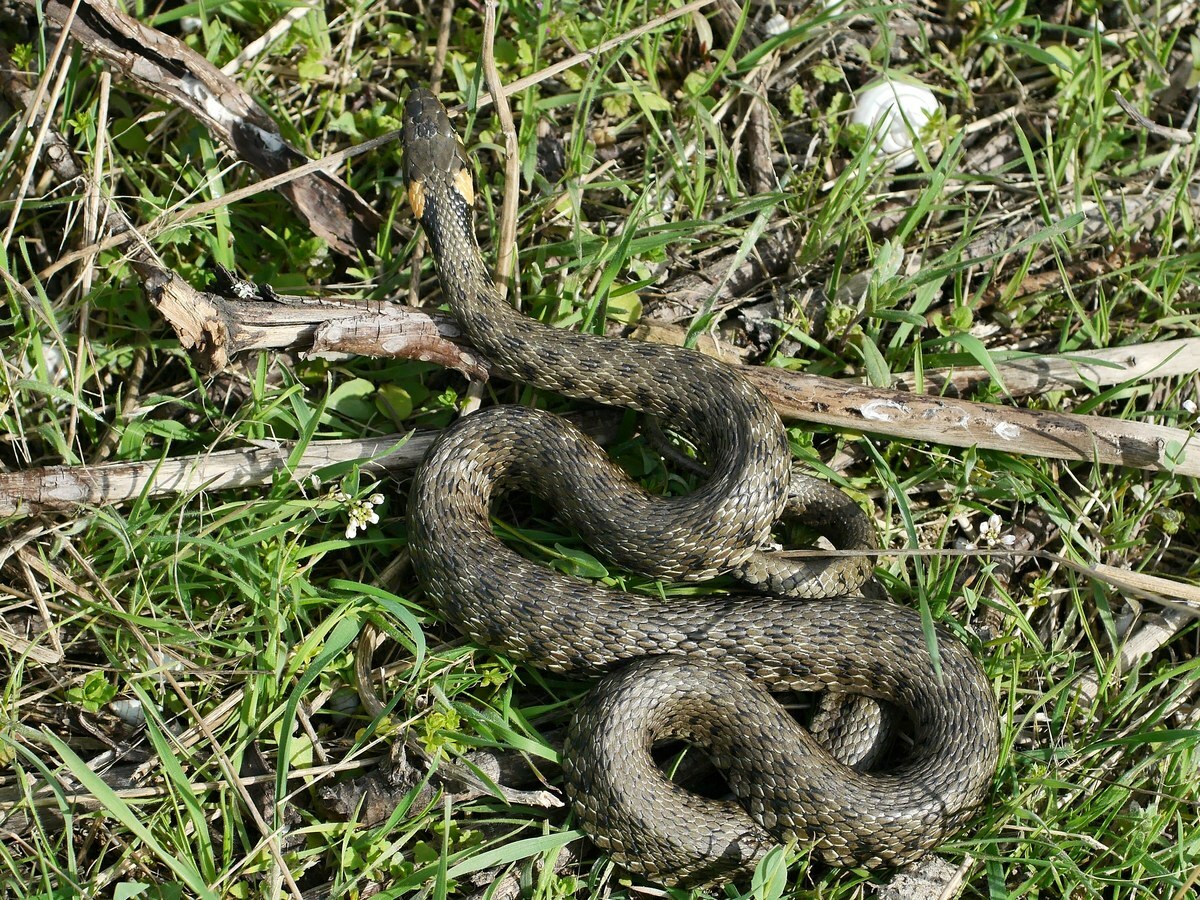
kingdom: Animalia
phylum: Chordata
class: Squamata
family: Colubridae
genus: Natrix
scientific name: Natrix natrix
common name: Grass snake
